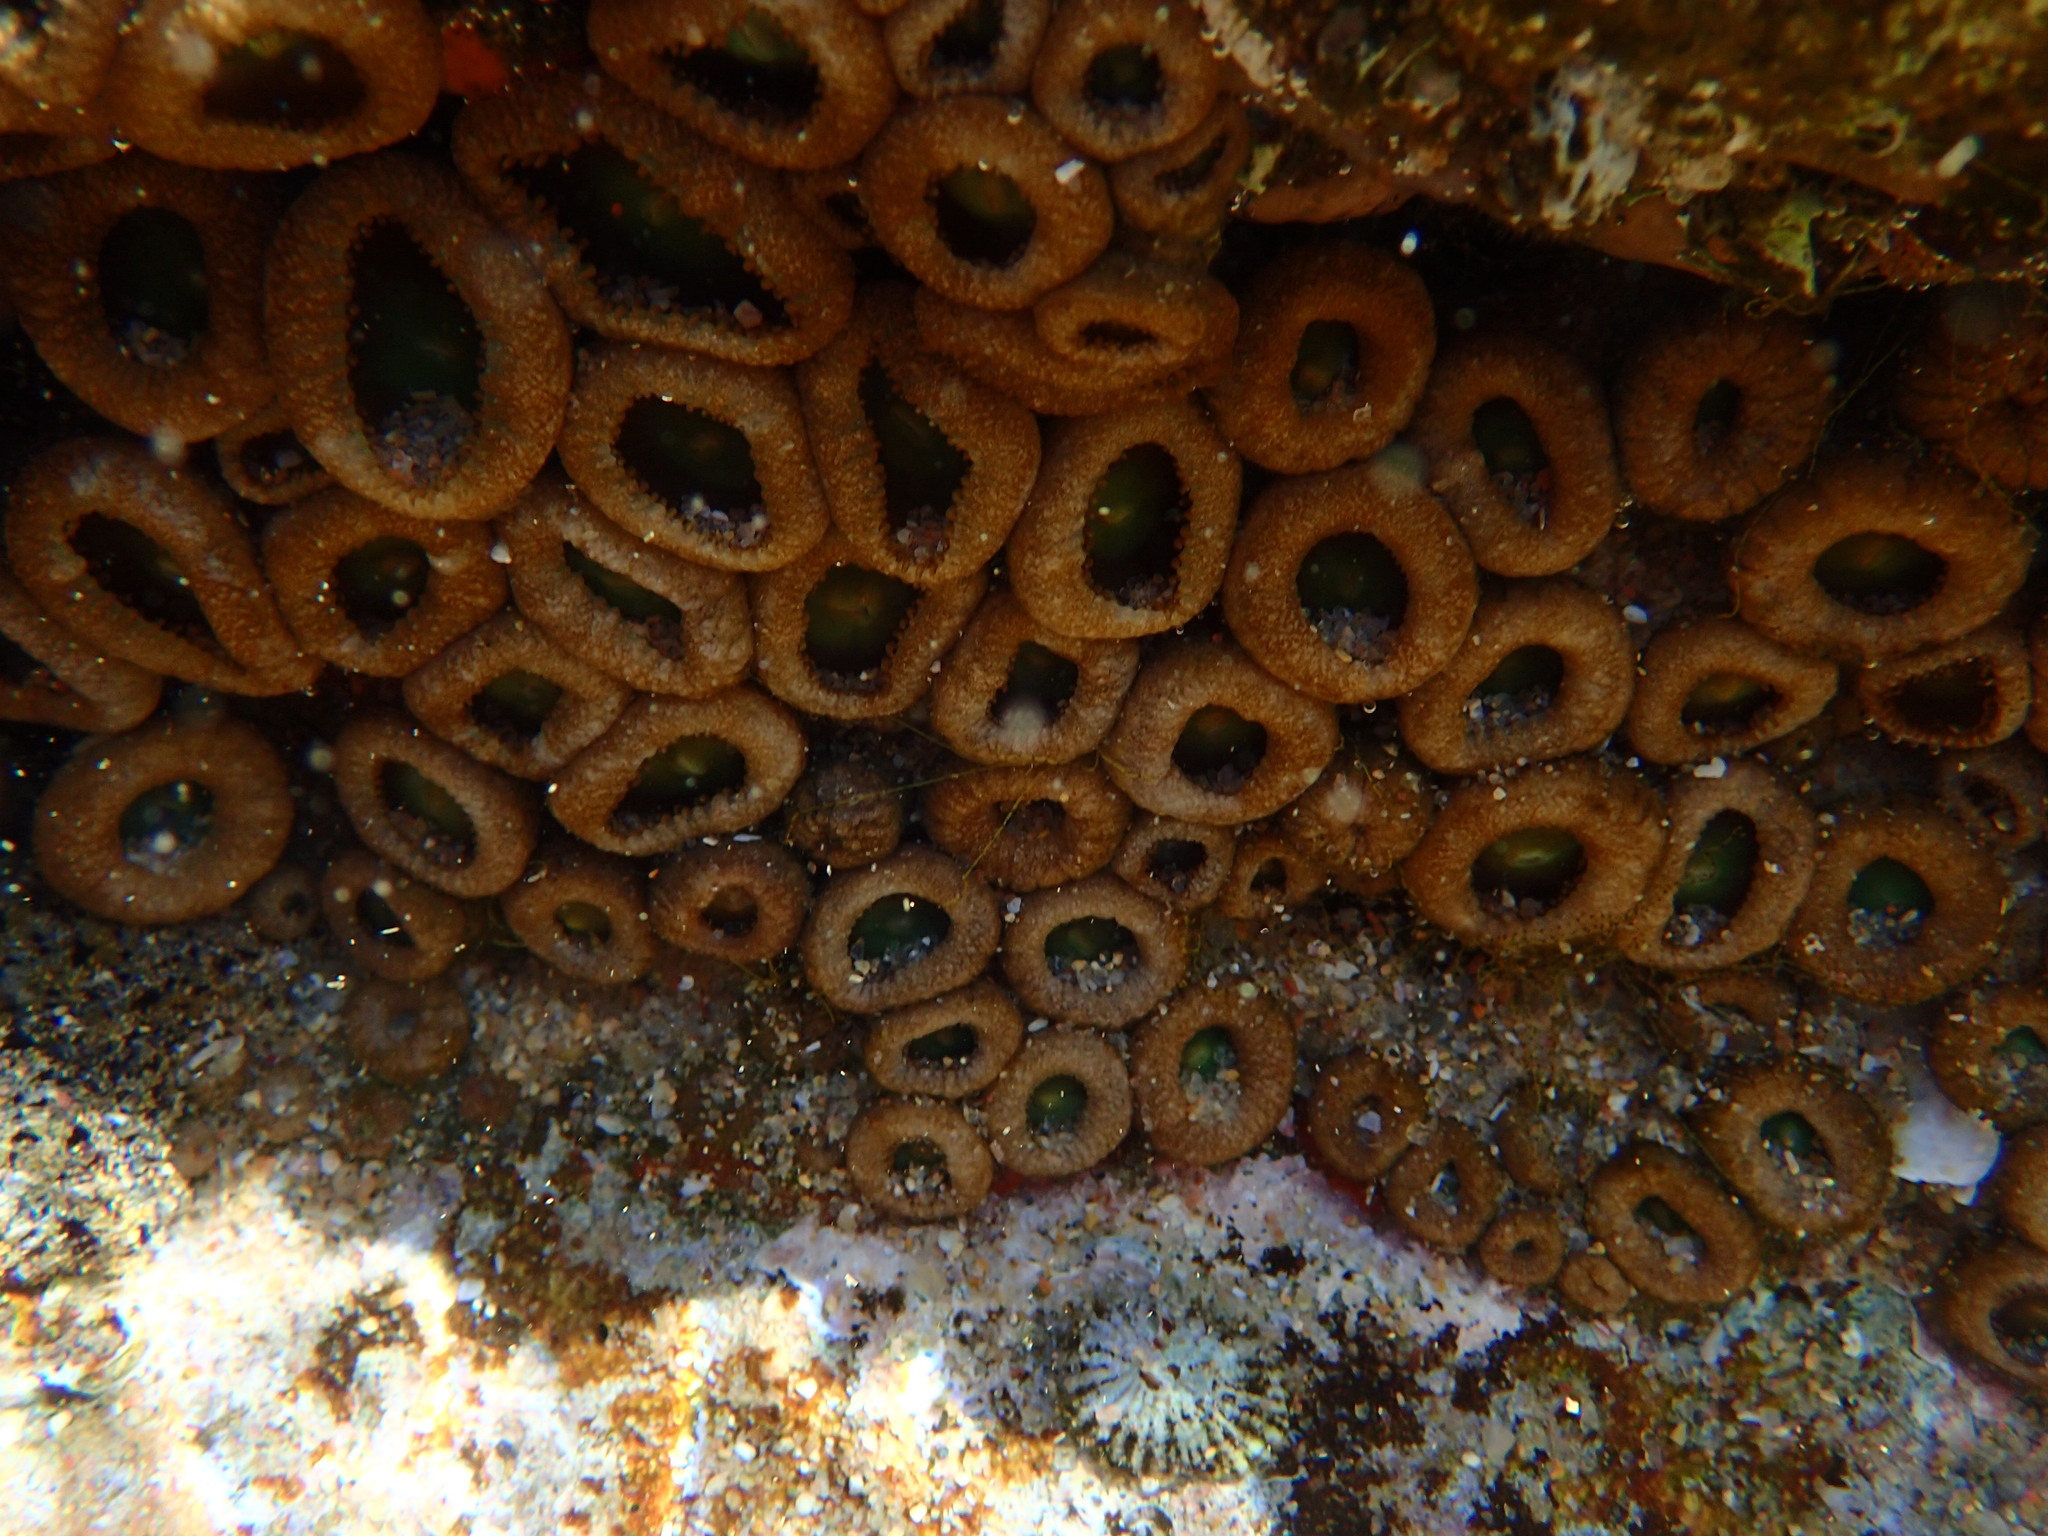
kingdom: Animalia
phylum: Cnidaria
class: Anthozoa
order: Zoantharia
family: Sphenopidae
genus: Palythoa
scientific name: Palythoa mutuki
